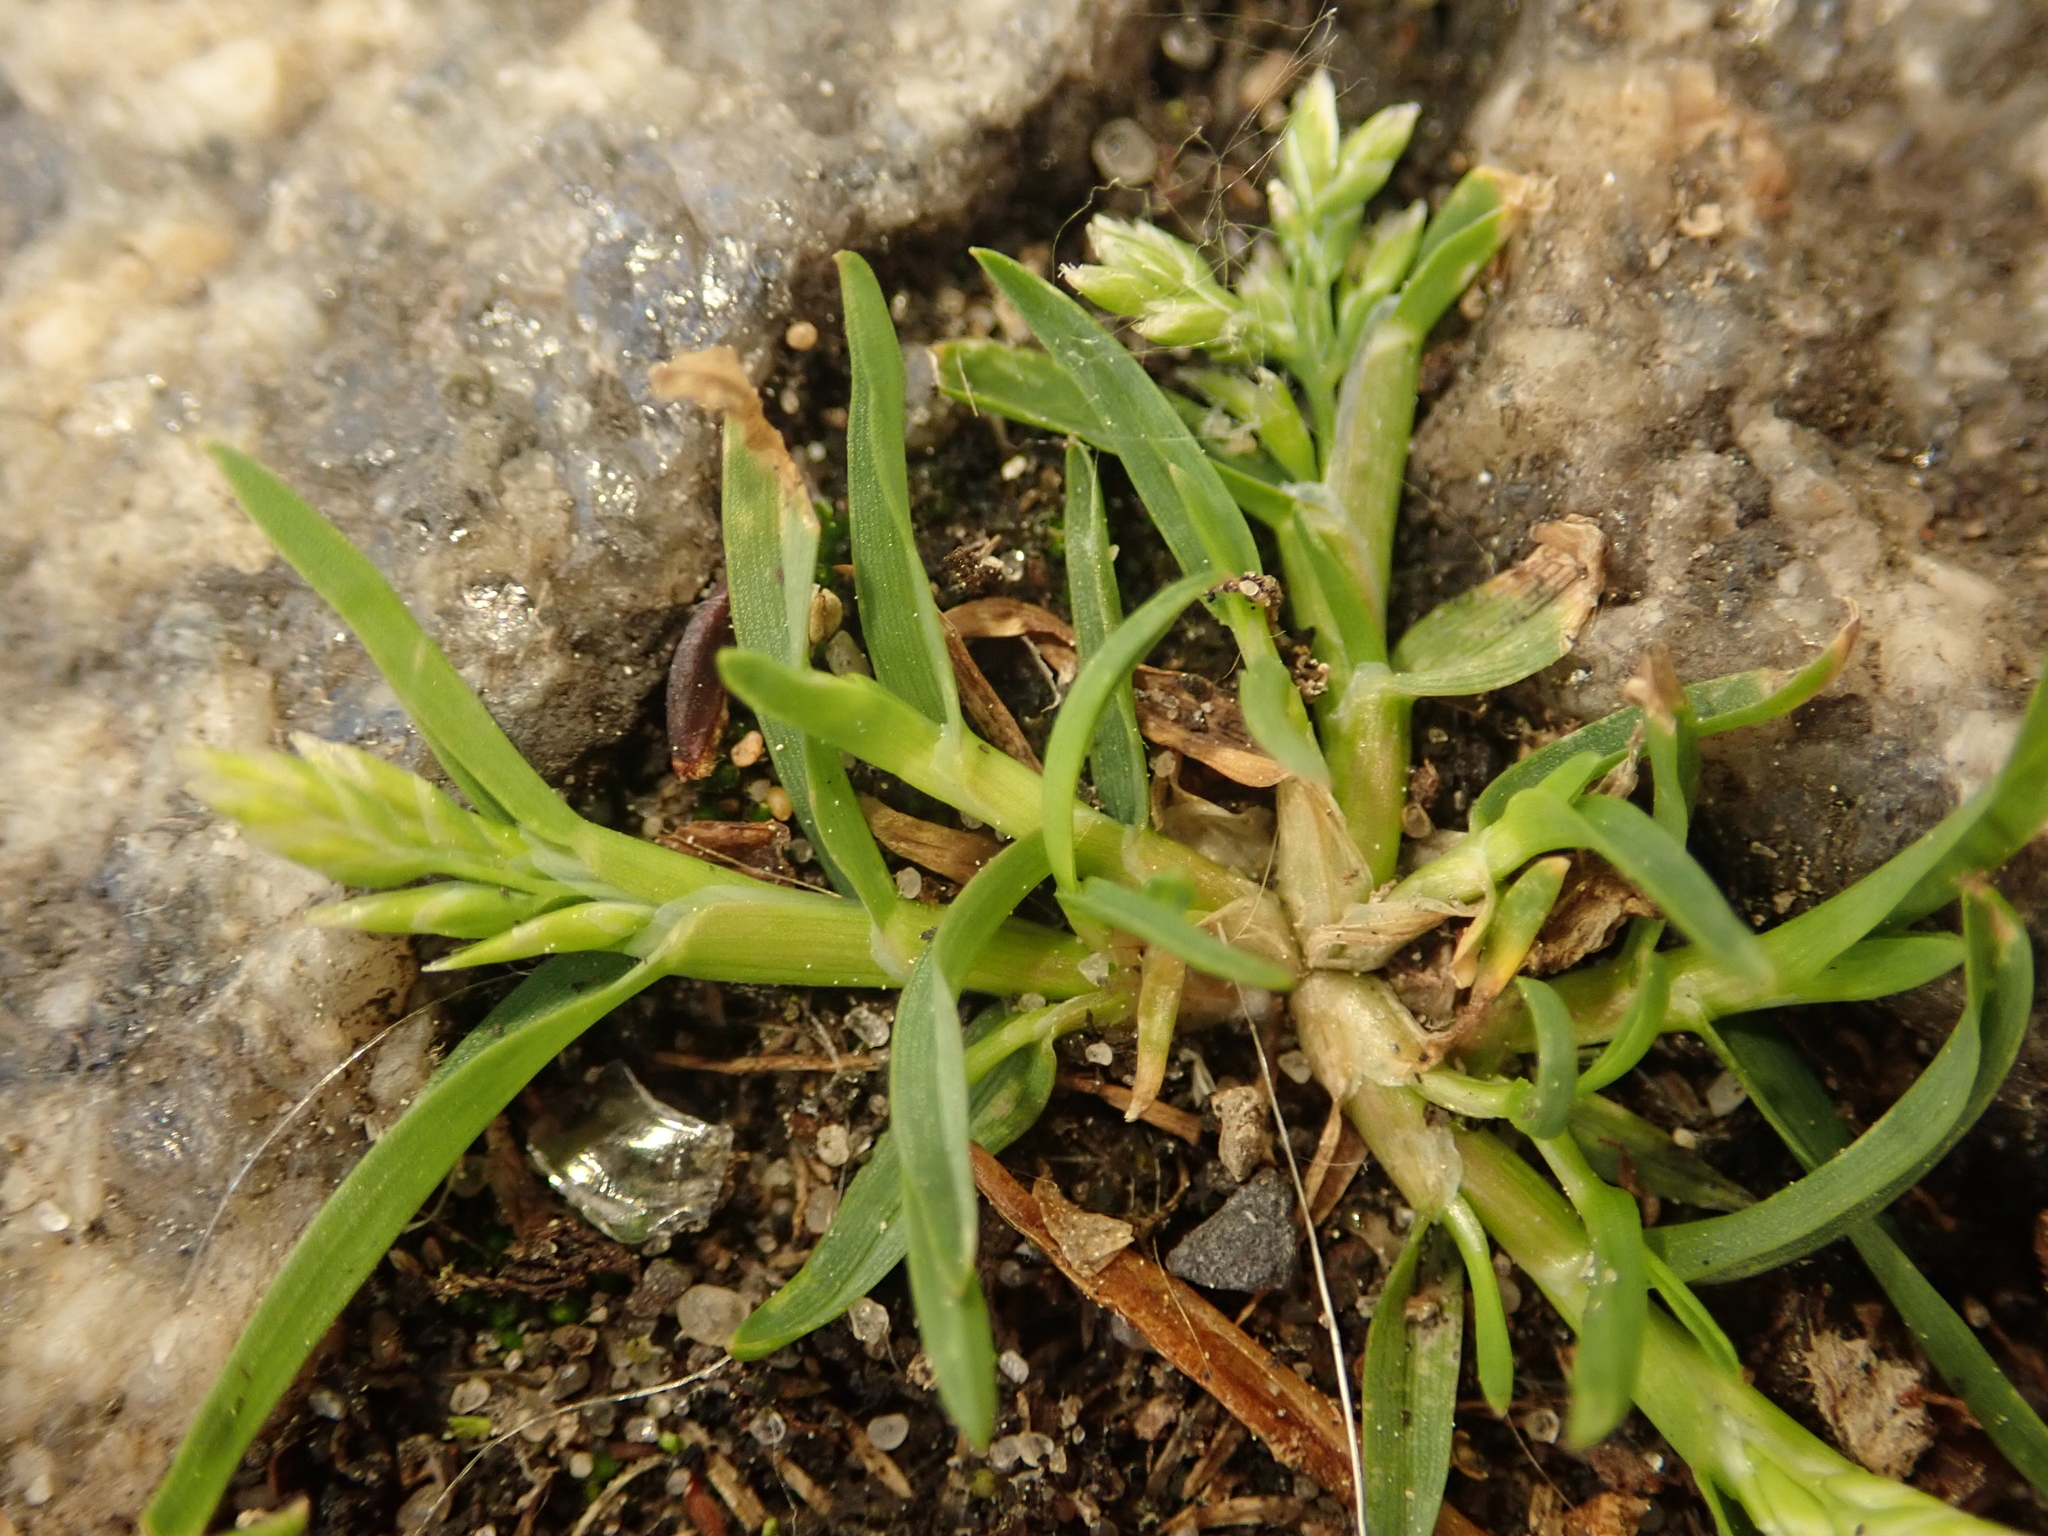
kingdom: Plantae
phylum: Tracheophyta
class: Liliopsida
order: Poales
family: Poaceae
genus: Poa
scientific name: Poa annua
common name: Annual bluegrass
